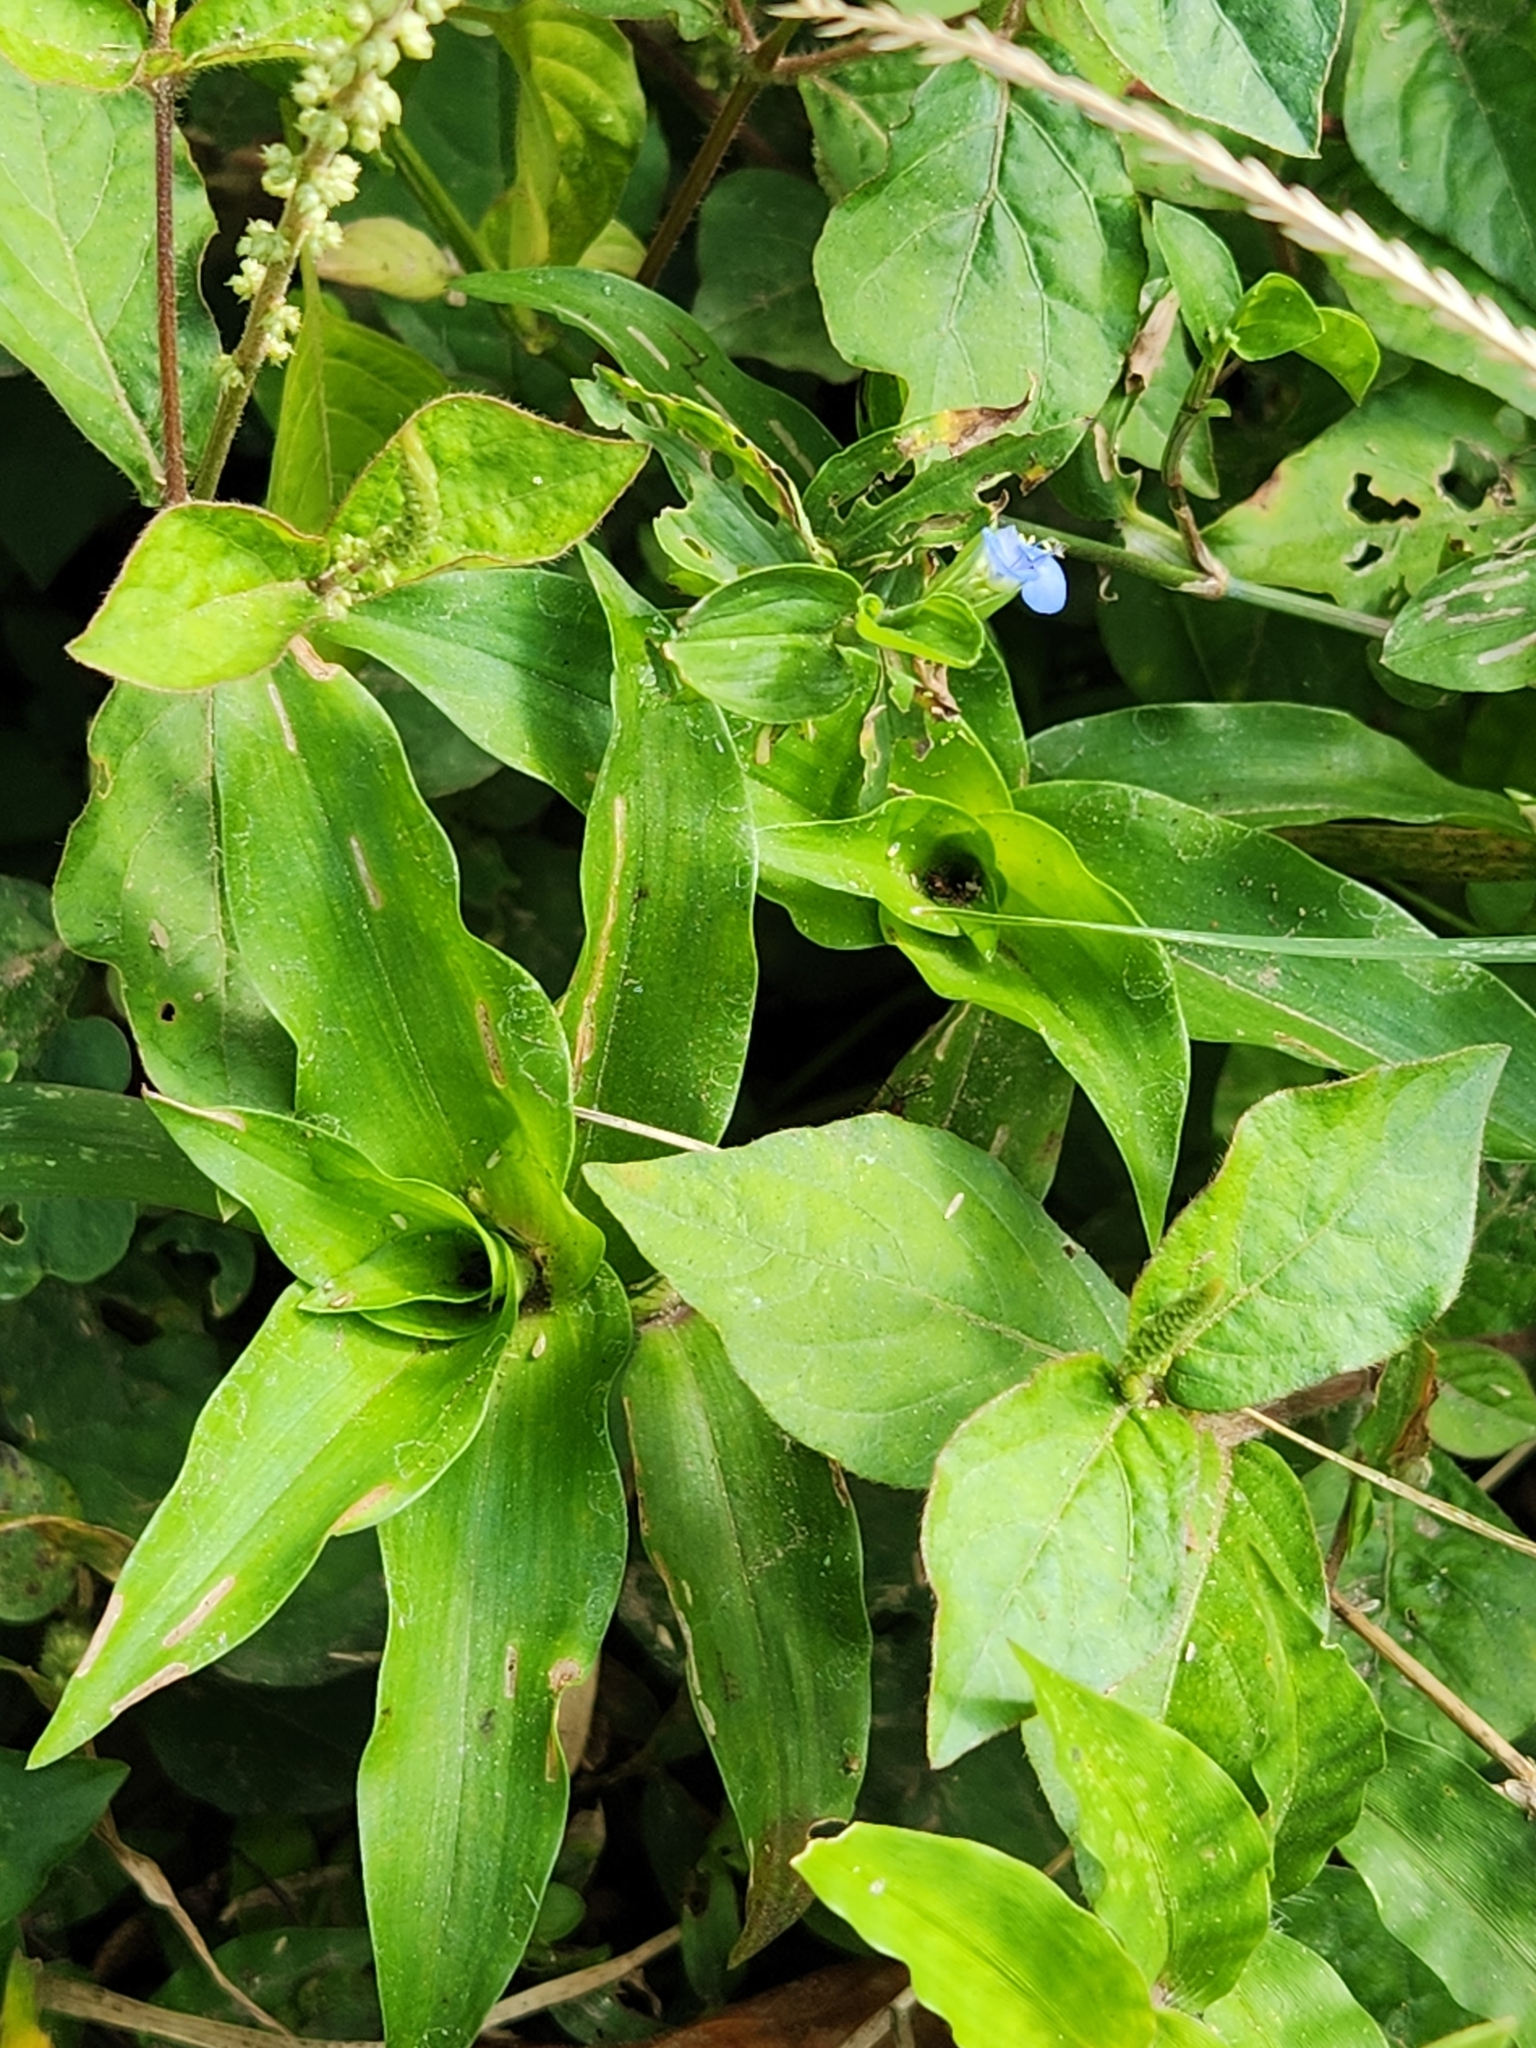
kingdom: Plantae
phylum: Tracheophyta
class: Liliopsida
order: Commelinales
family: Commelinaceae
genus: Commelina
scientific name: Commelina diffusa
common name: Climbing dayflower
